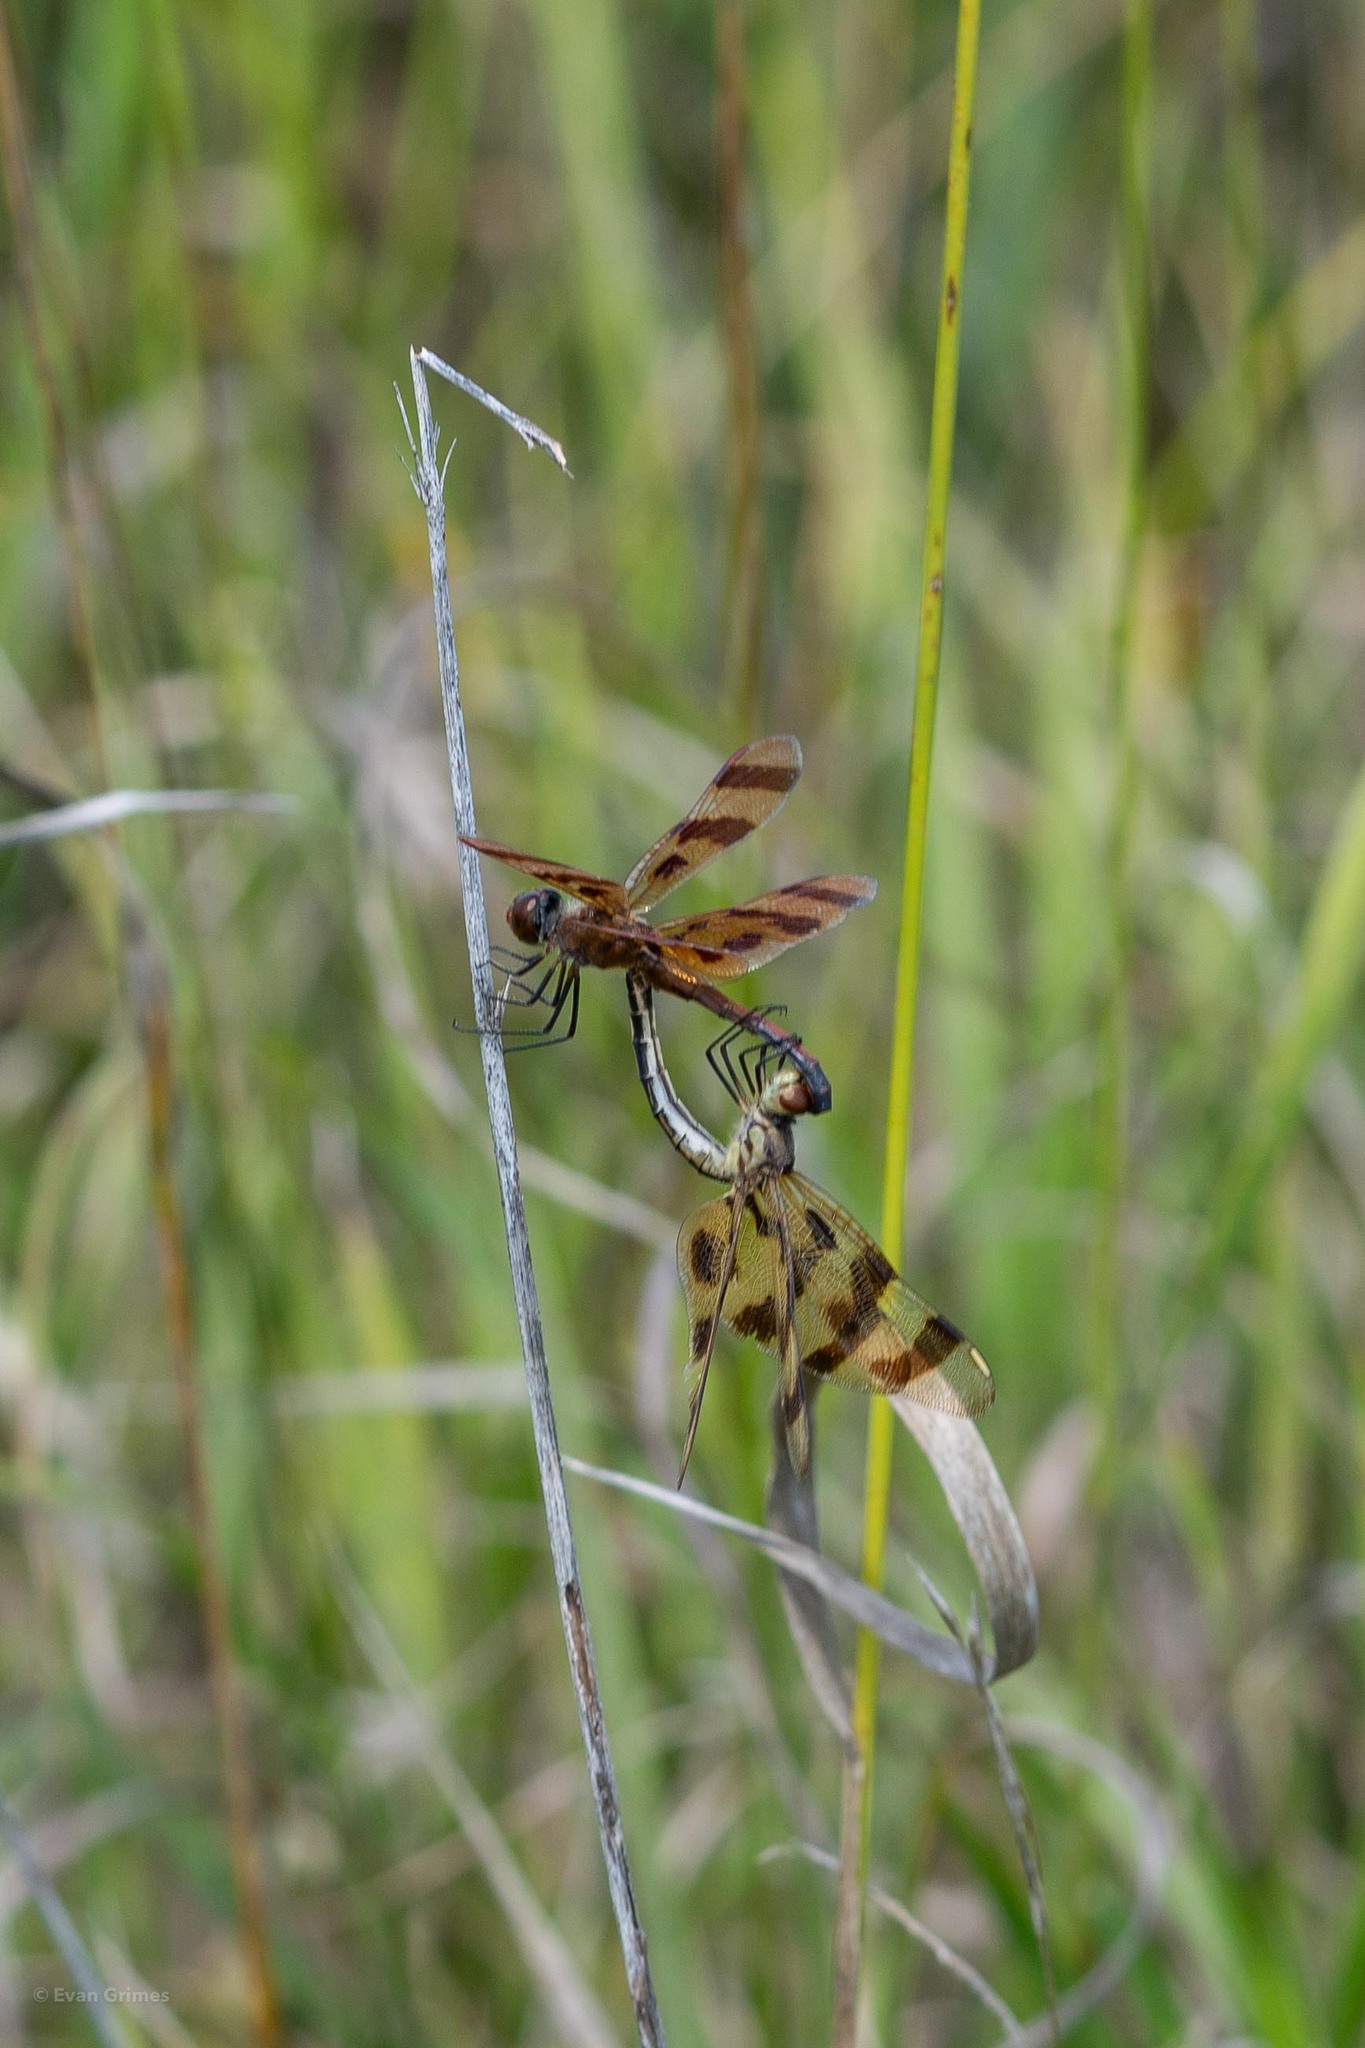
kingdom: Animalia
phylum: Arthropoda
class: Insecta
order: Odonata
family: Libellulidae
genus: Celithemis
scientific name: Celithemis eponina
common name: Halloween pennant
